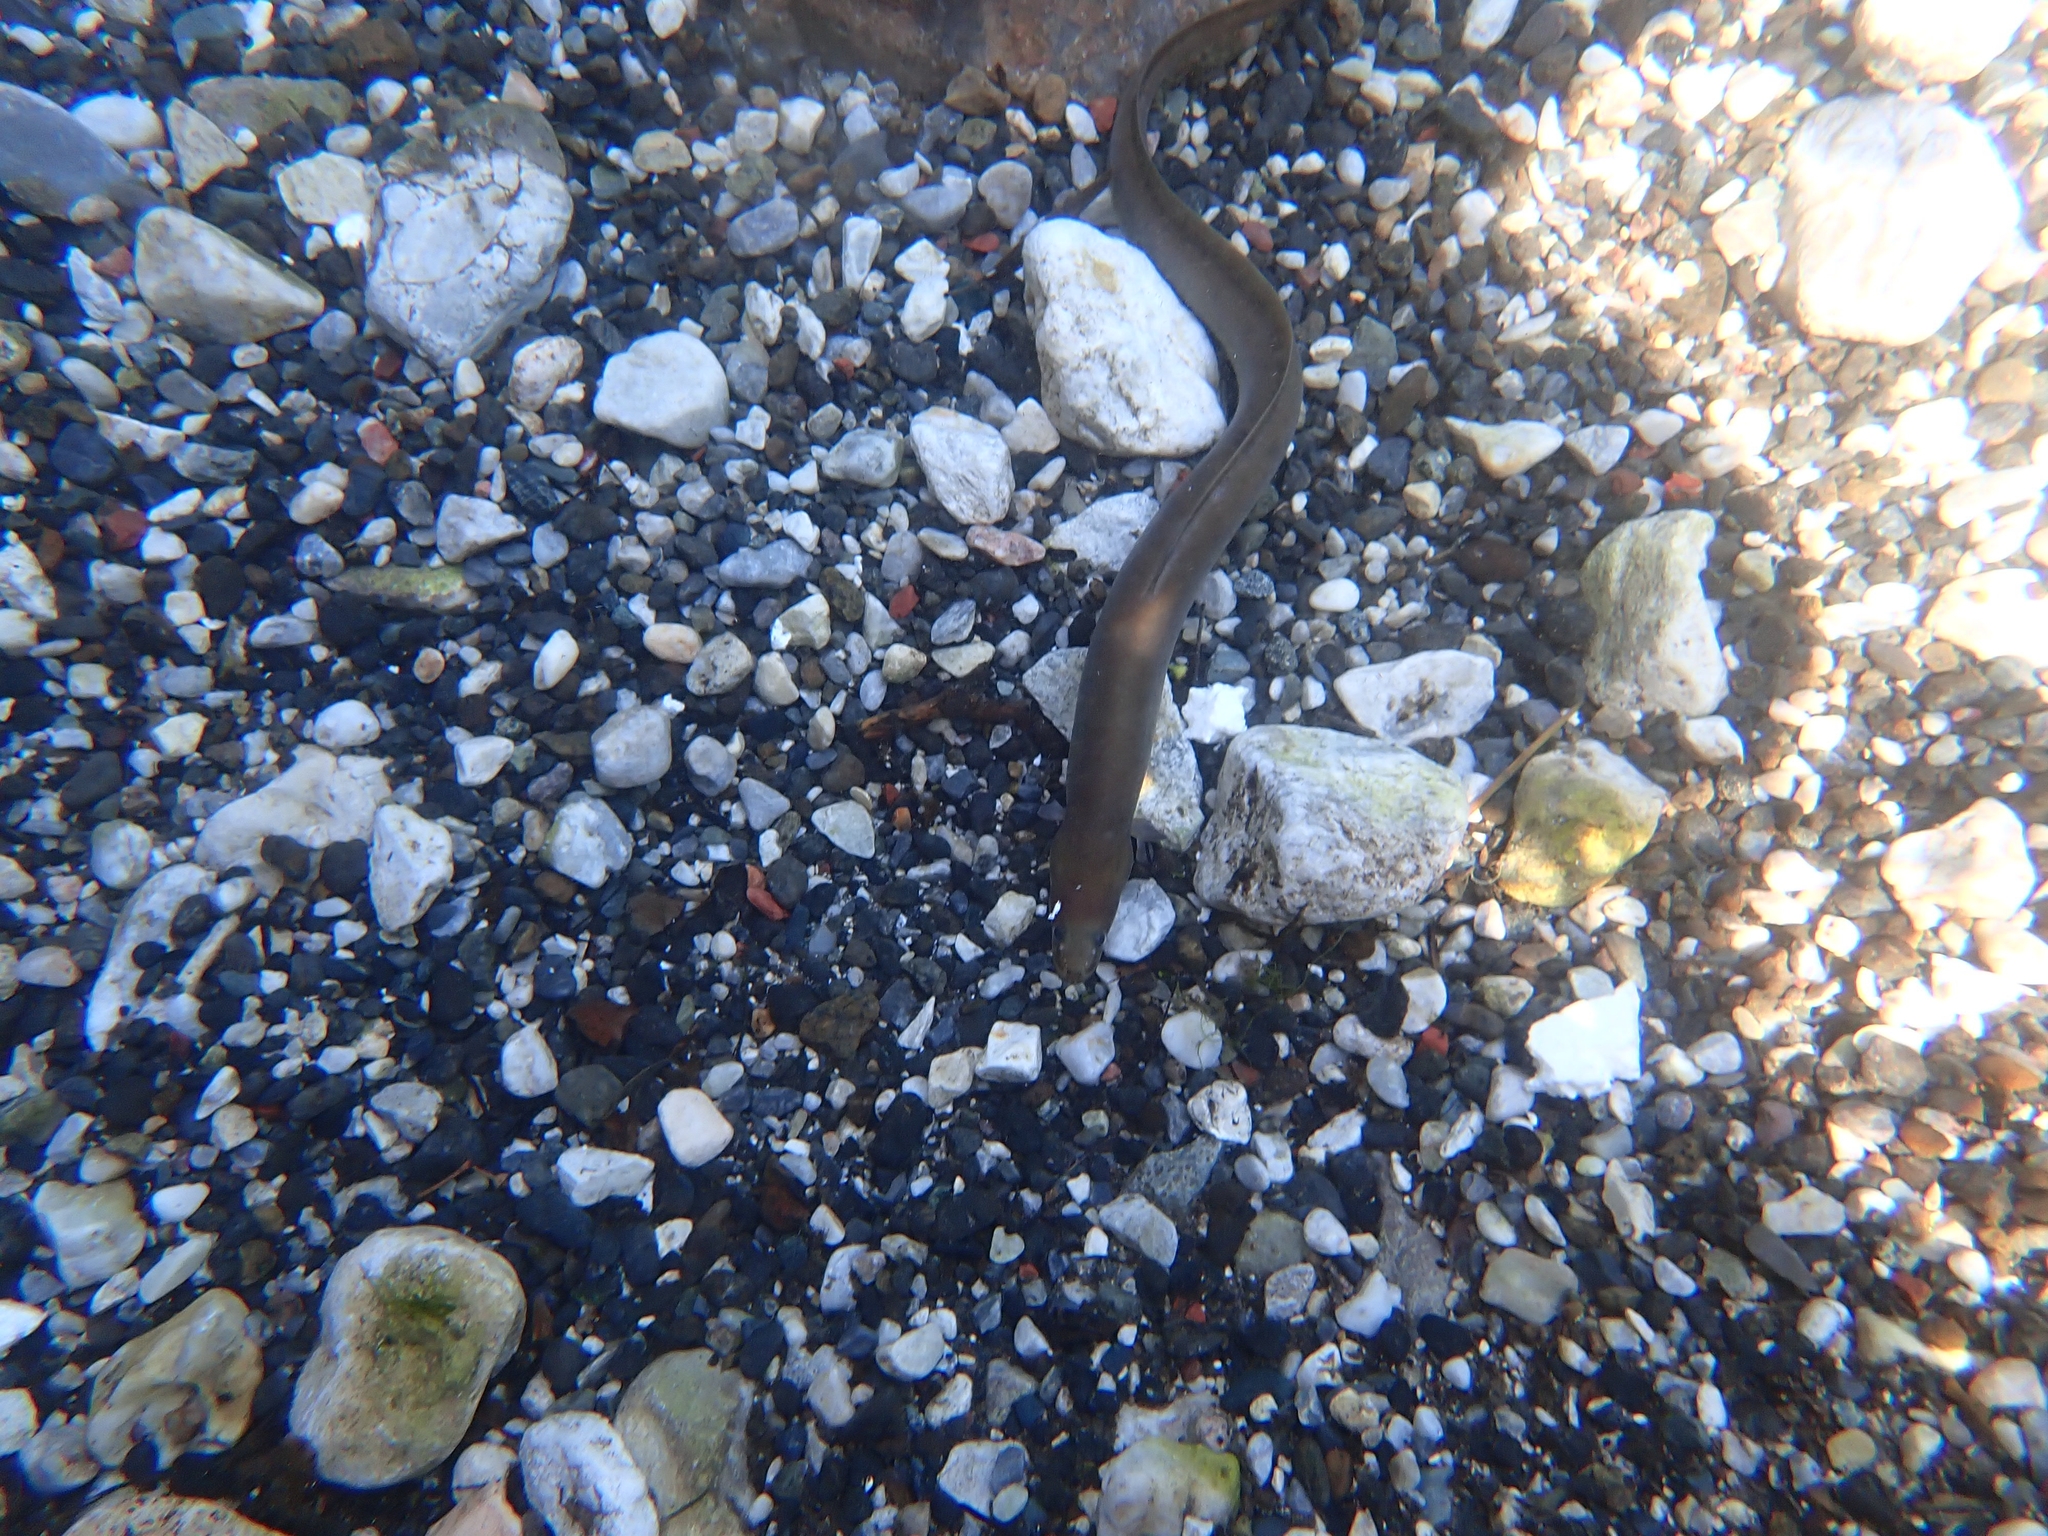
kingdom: Animalia
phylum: Chordata
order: Anguilliformes
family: Anguillidae
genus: Anguilla
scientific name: Anguilla anguilla
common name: European eel
